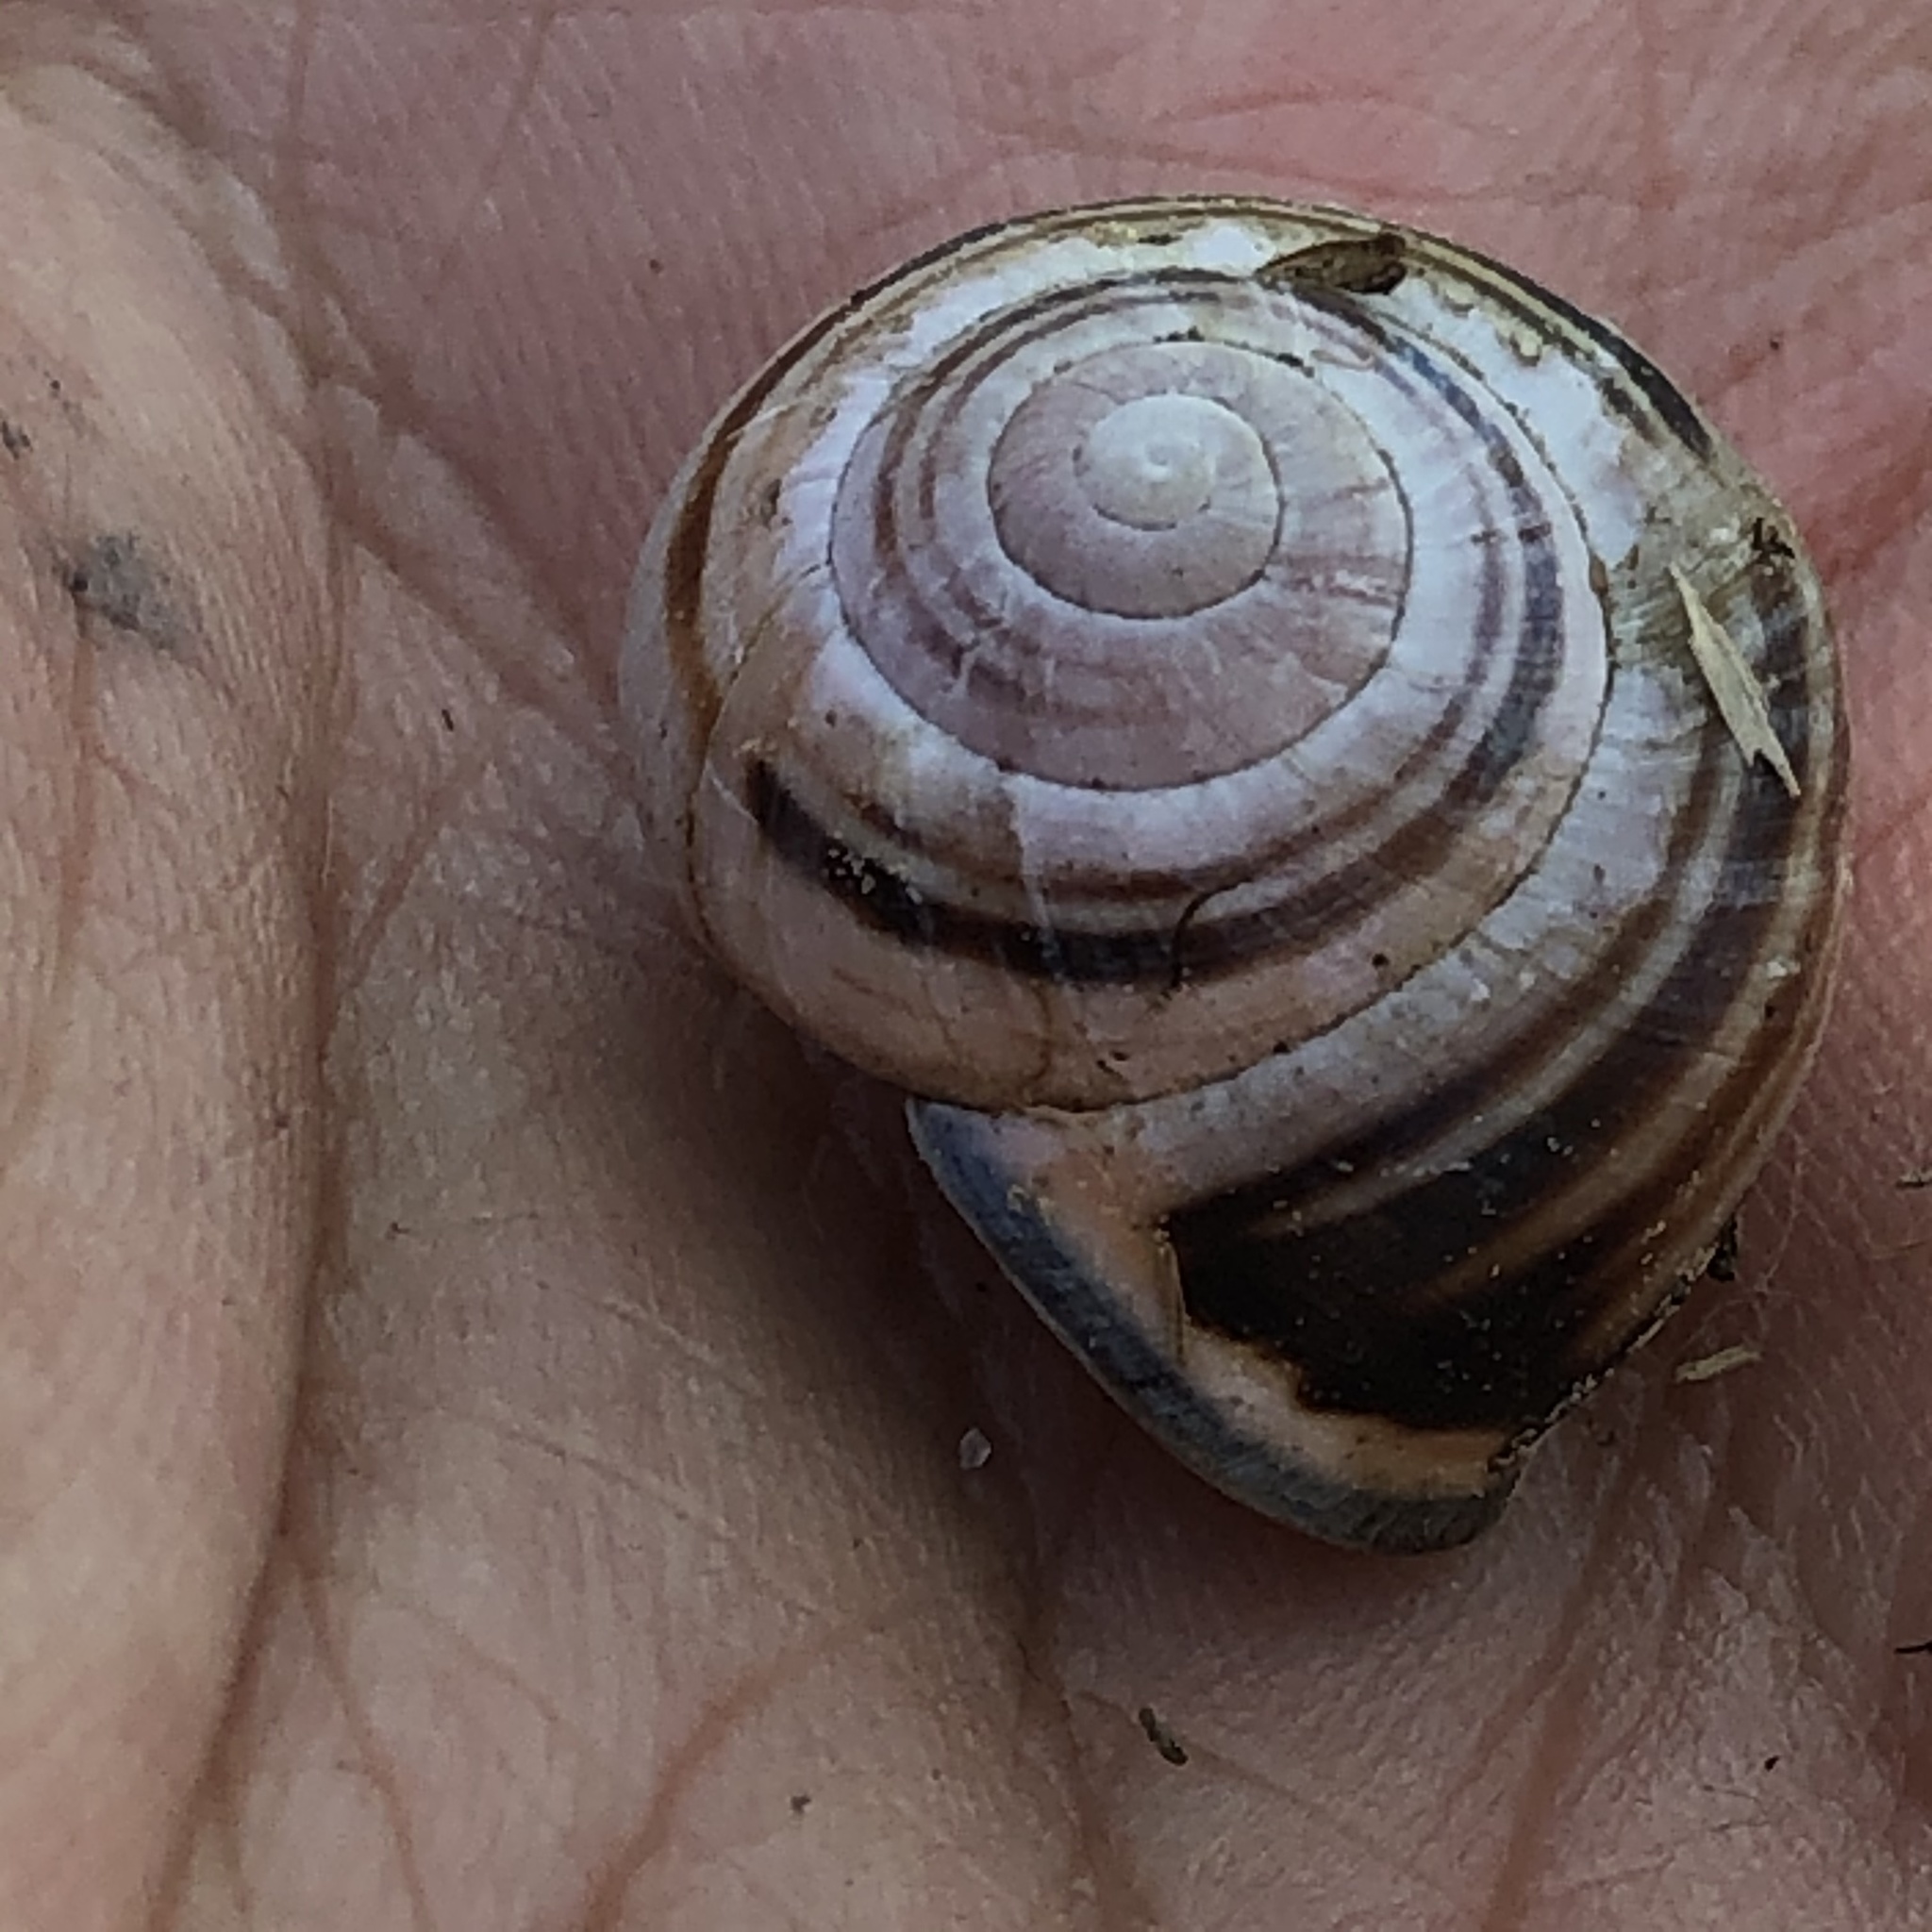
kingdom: Animalia
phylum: Mollusca
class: Gastropoda
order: Stylommatophora
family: Helicidae
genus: Cepaea
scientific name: Cepaea nemoralis
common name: Grovesnail
